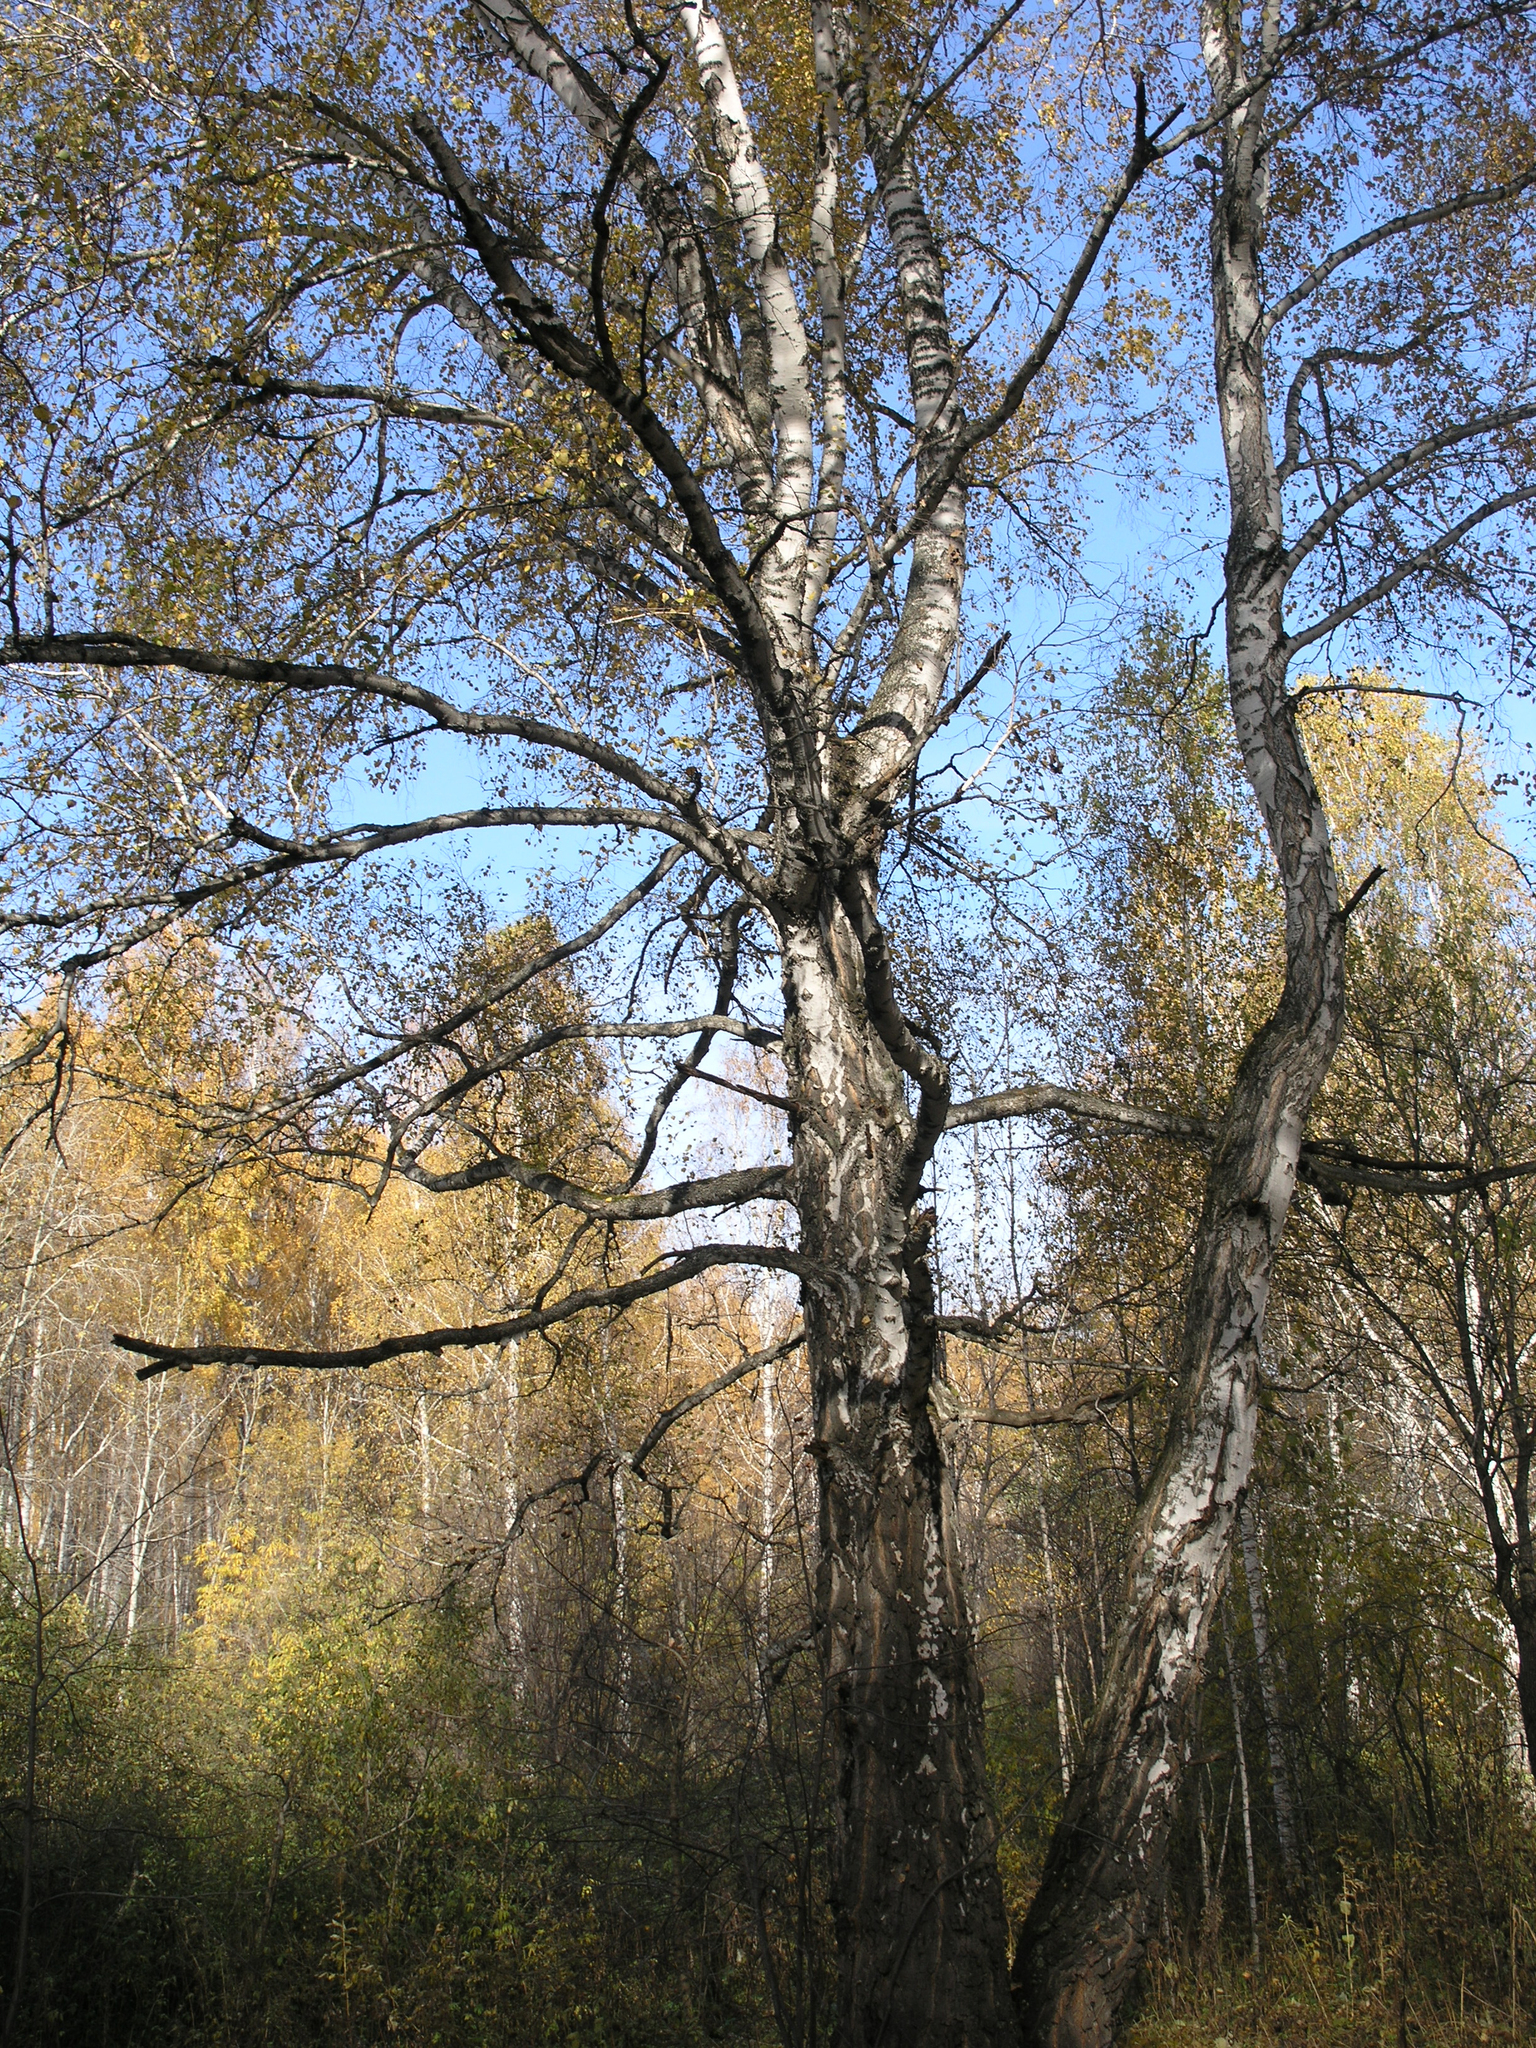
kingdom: Plantae
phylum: Tracheophyta
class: Magnoliopsida
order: Fagales
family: Betulaceae
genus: Betula
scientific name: Betula pendula
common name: Silver birch
